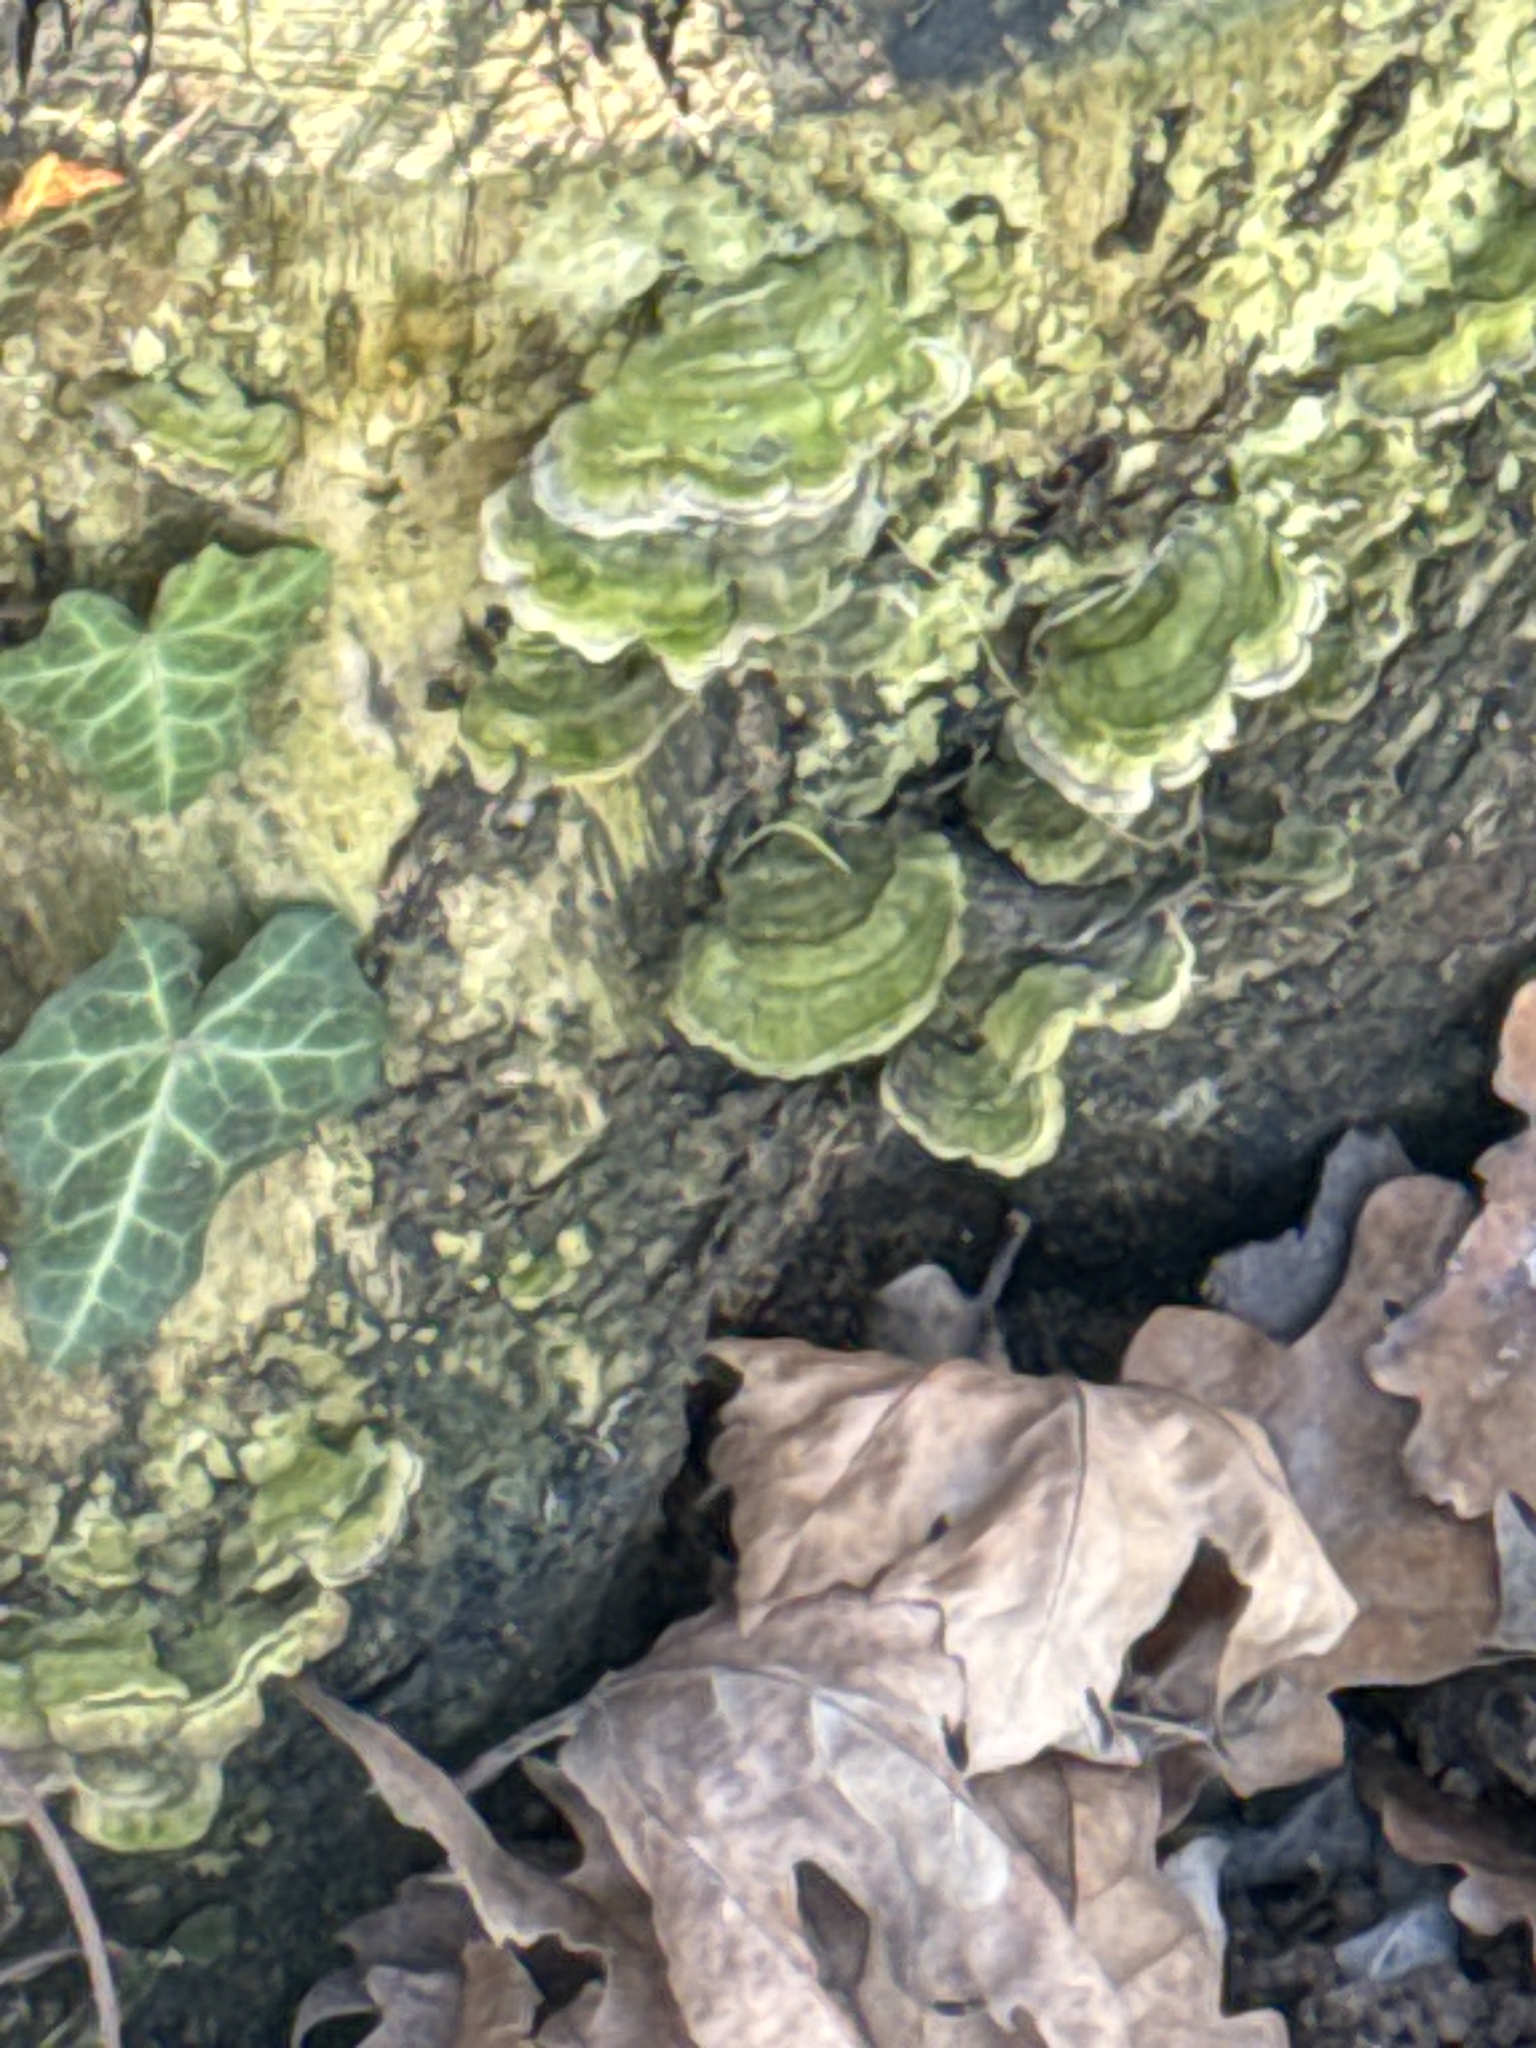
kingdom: Fungi
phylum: Basidiomycota
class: Agaricomycetes
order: Polyporales
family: Cerrenaceae
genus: Cerrena
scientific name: Cerrena unicolor
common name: Mossy maze polypore
